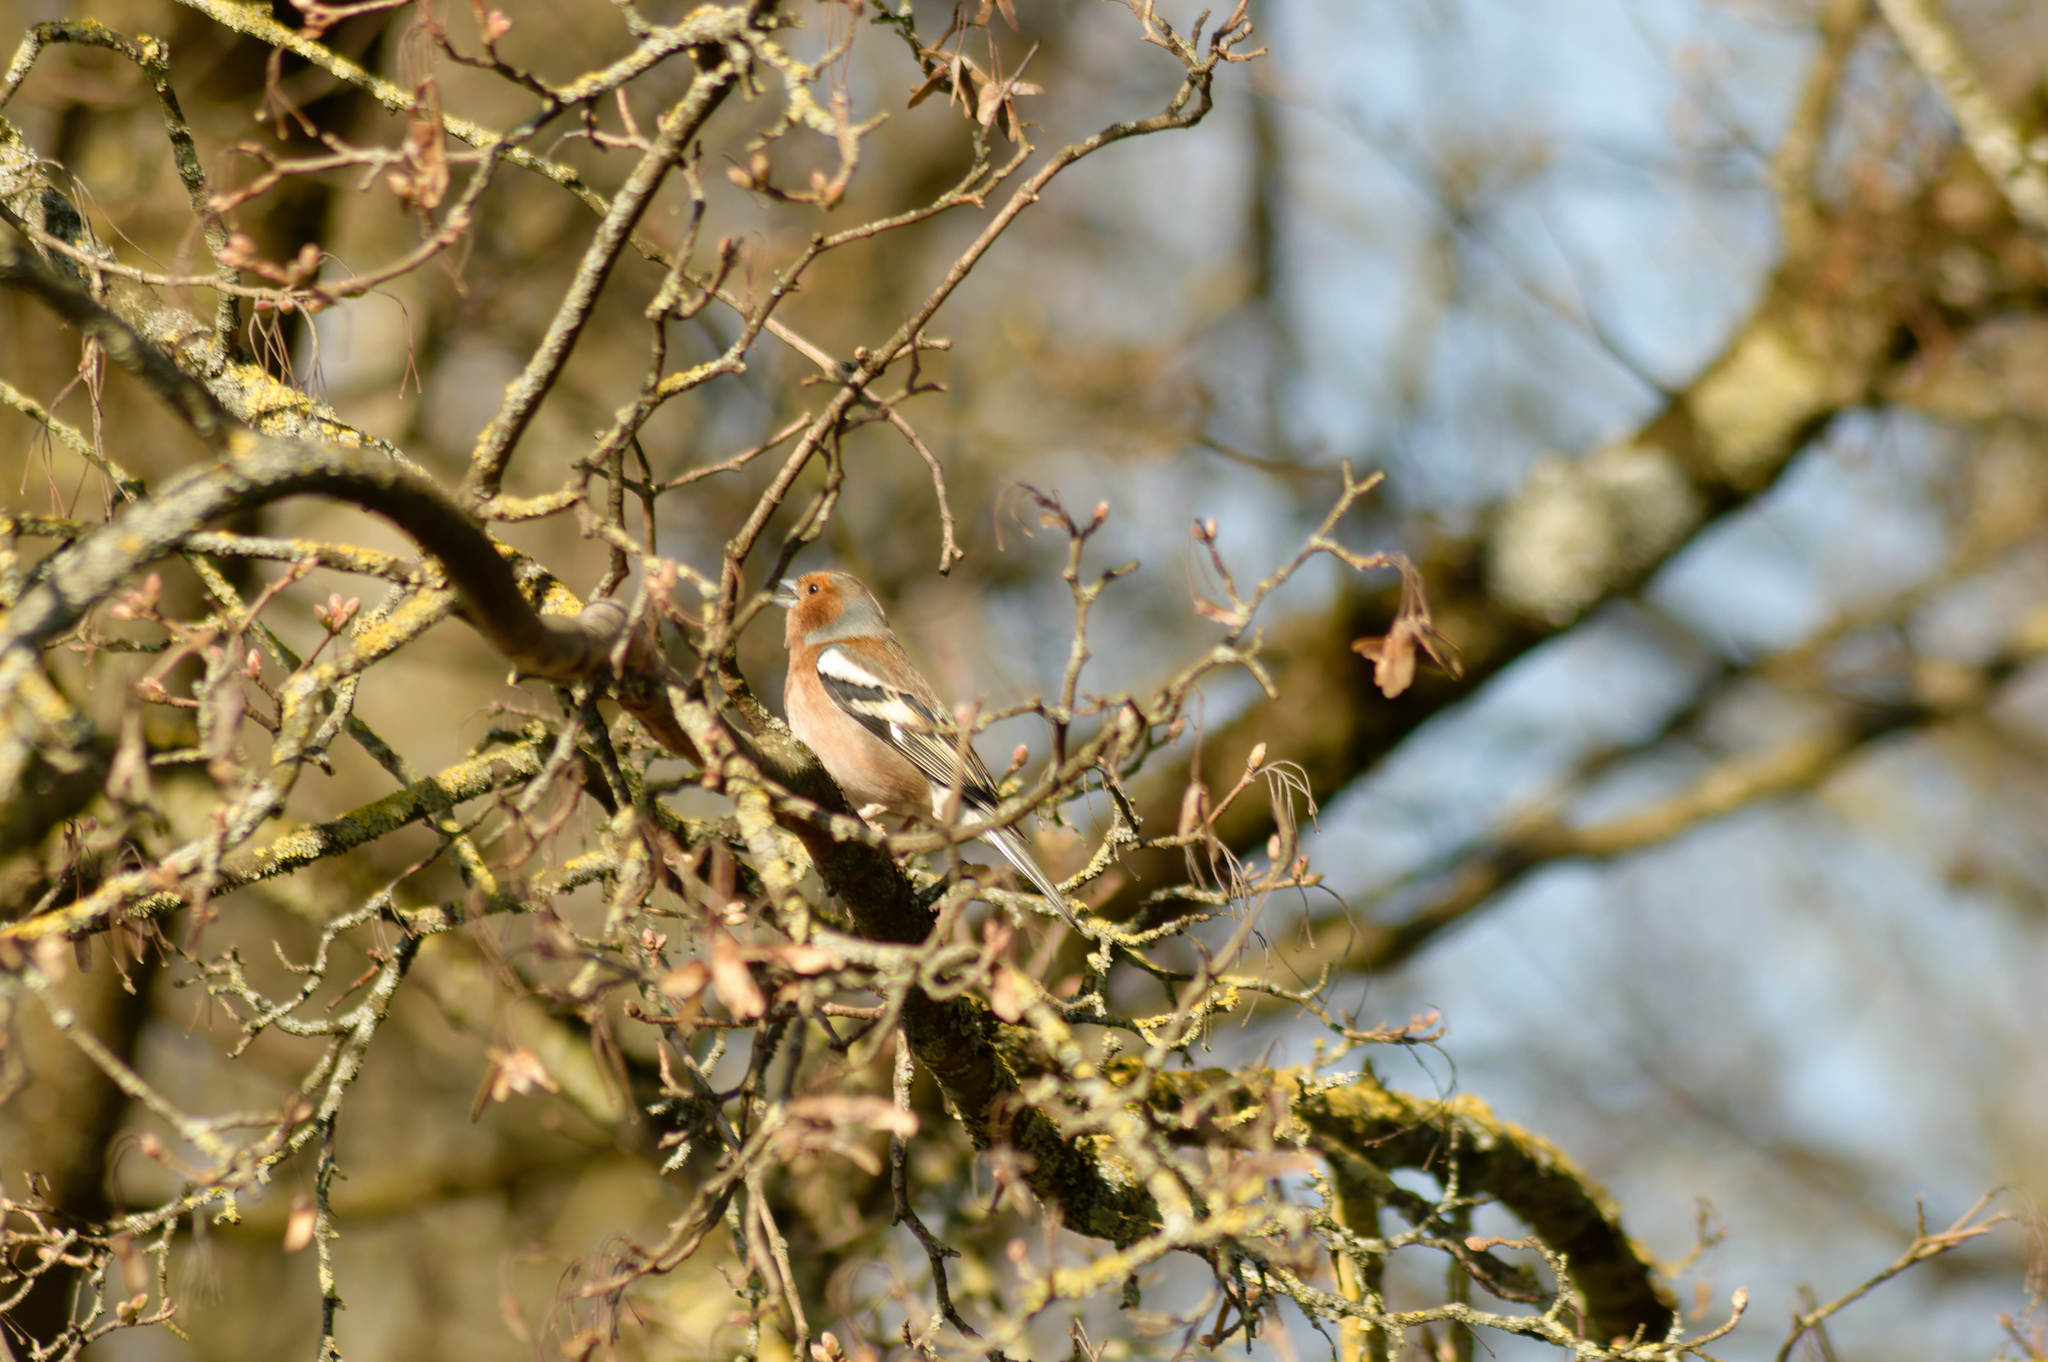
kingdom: Animalia
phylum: Chordata
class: Aves
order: Passeriformes
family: Fringillidae
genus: Fringilla
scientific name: Fringilla coelebs
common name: Common chaffinch
